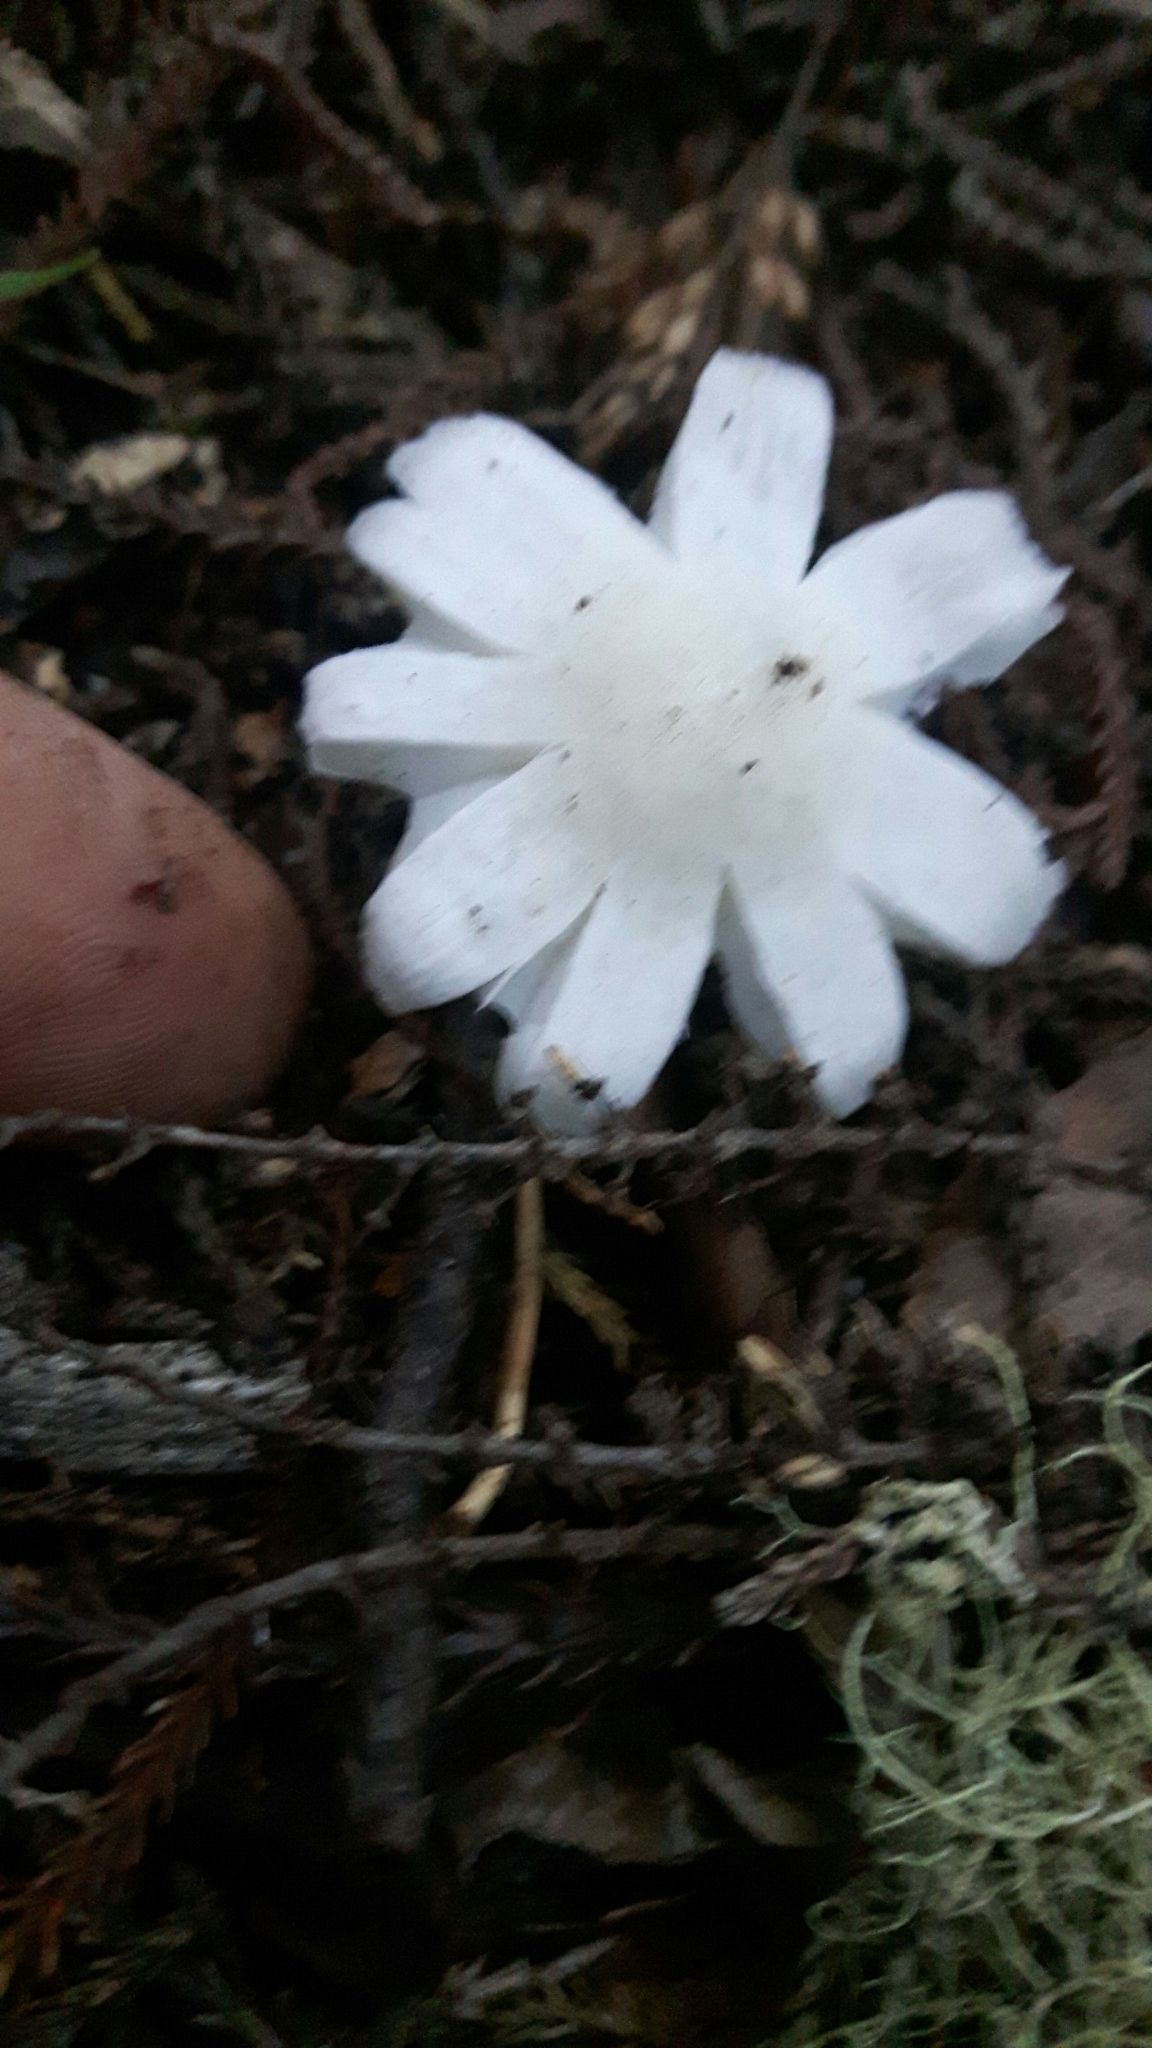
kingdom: Fungi
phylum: Basidiomycota
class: Agaricomycetes
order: Agaricales
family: Hygrophoraceae
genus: Humidicutis
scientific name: Humidicutis mavis
